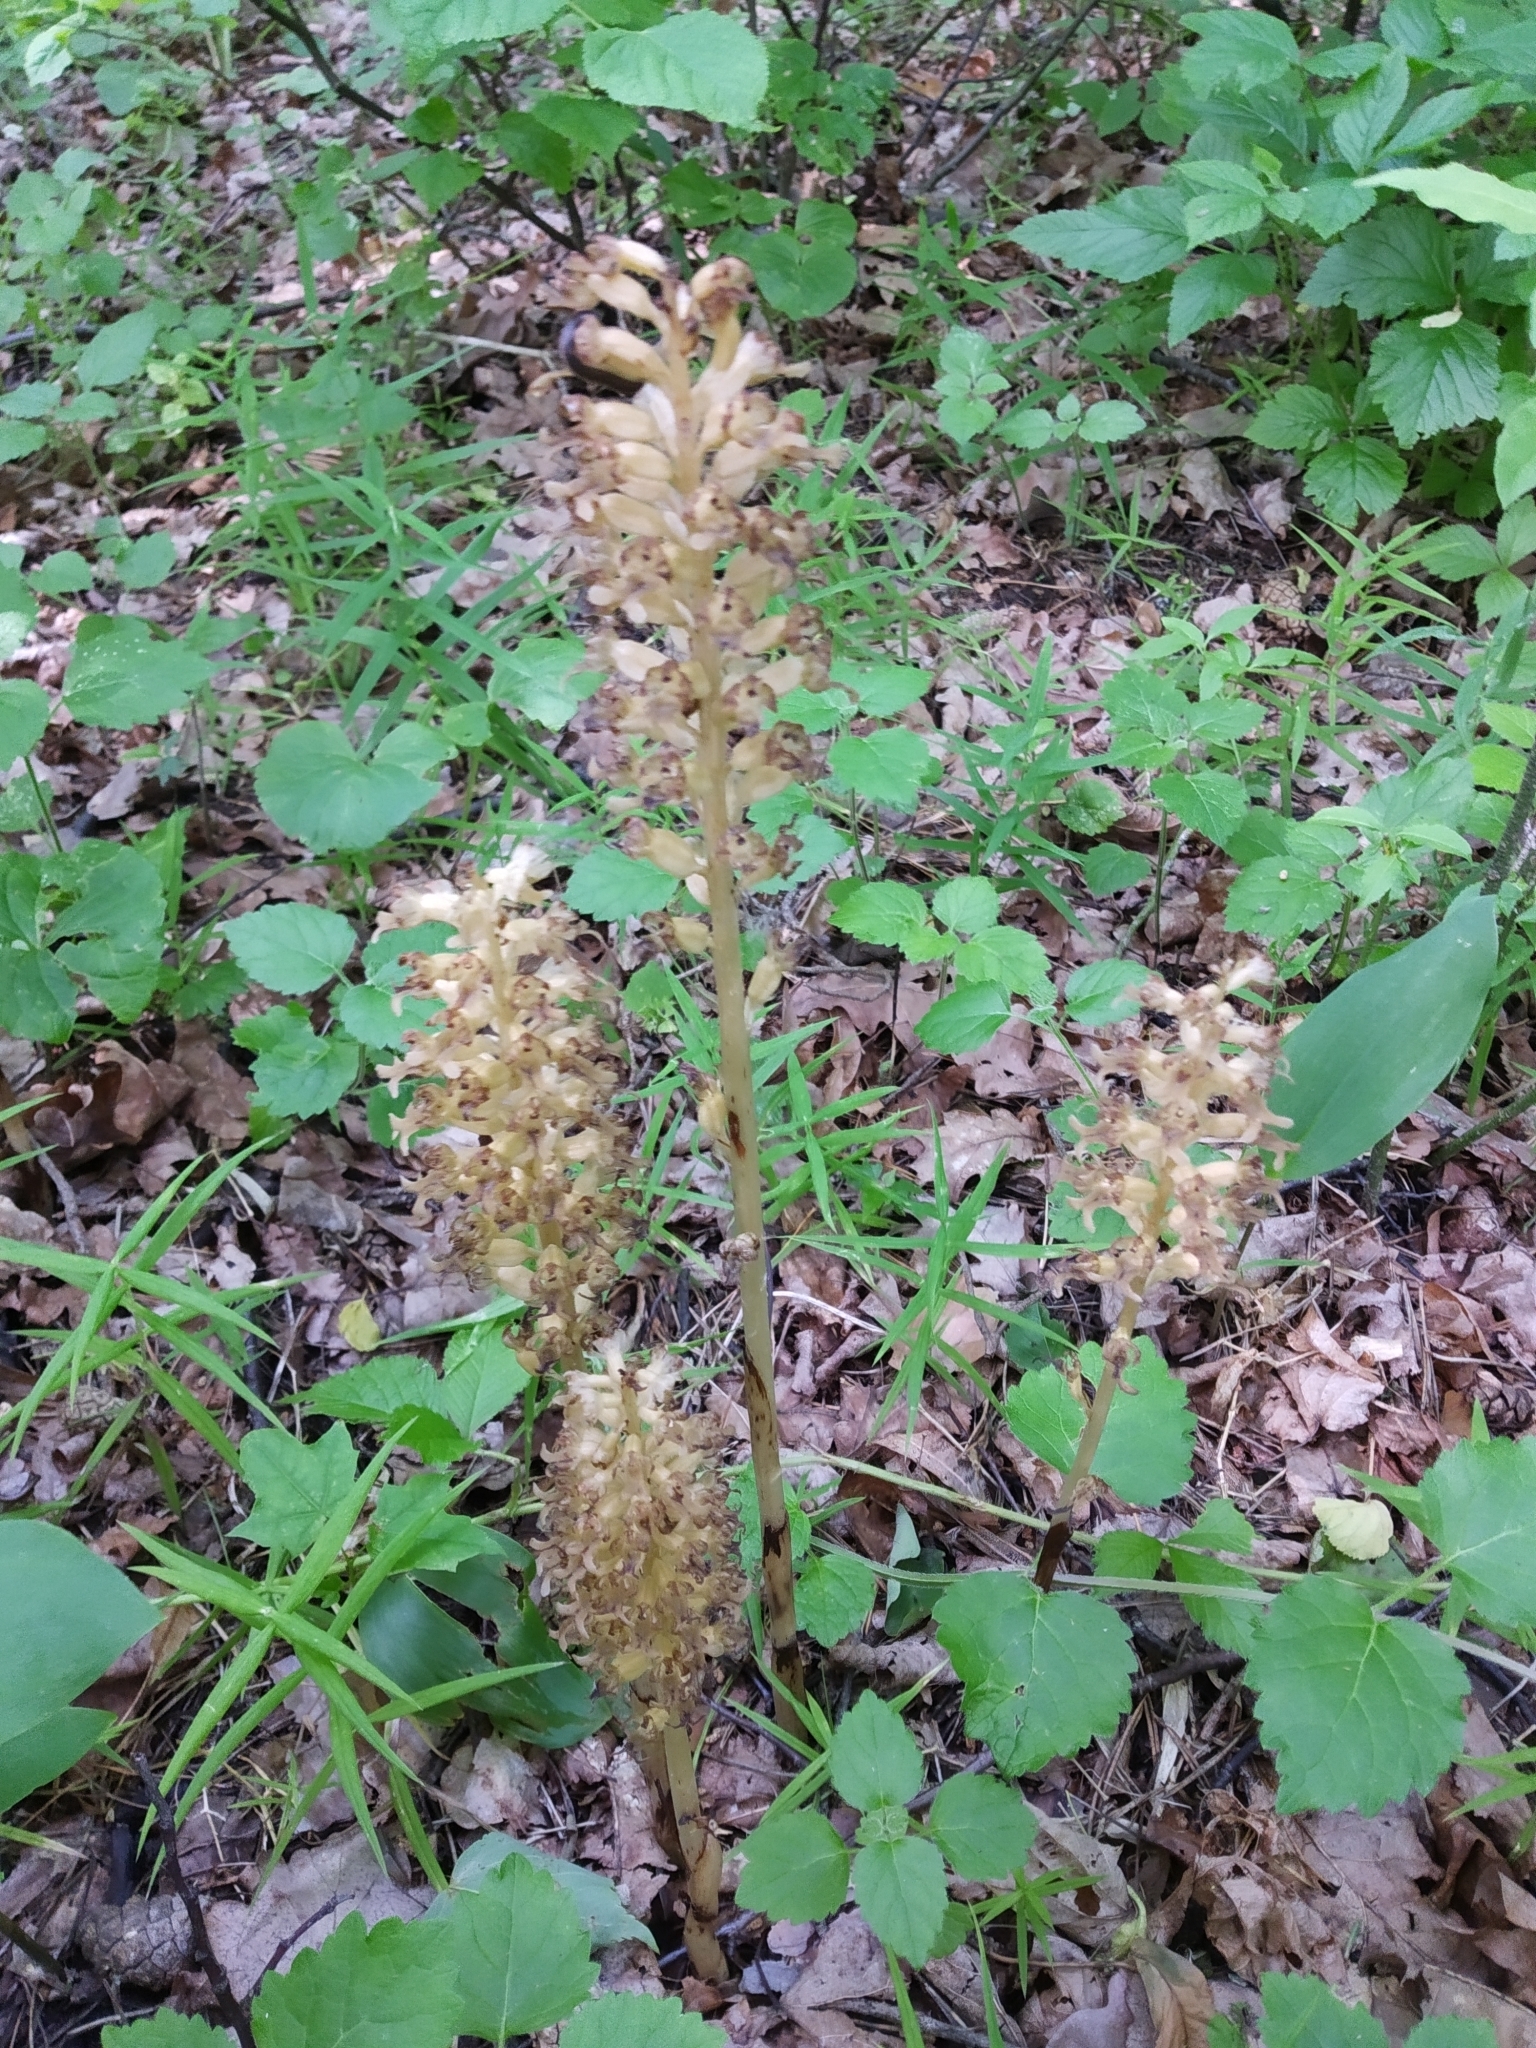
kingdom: Plantae
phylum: Tracheophyta
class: Liliopsida
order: Asparagales
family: Orchidaceae
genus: Neottia
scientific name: Neottia nidus-avis
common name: Bird's-nest orchid
